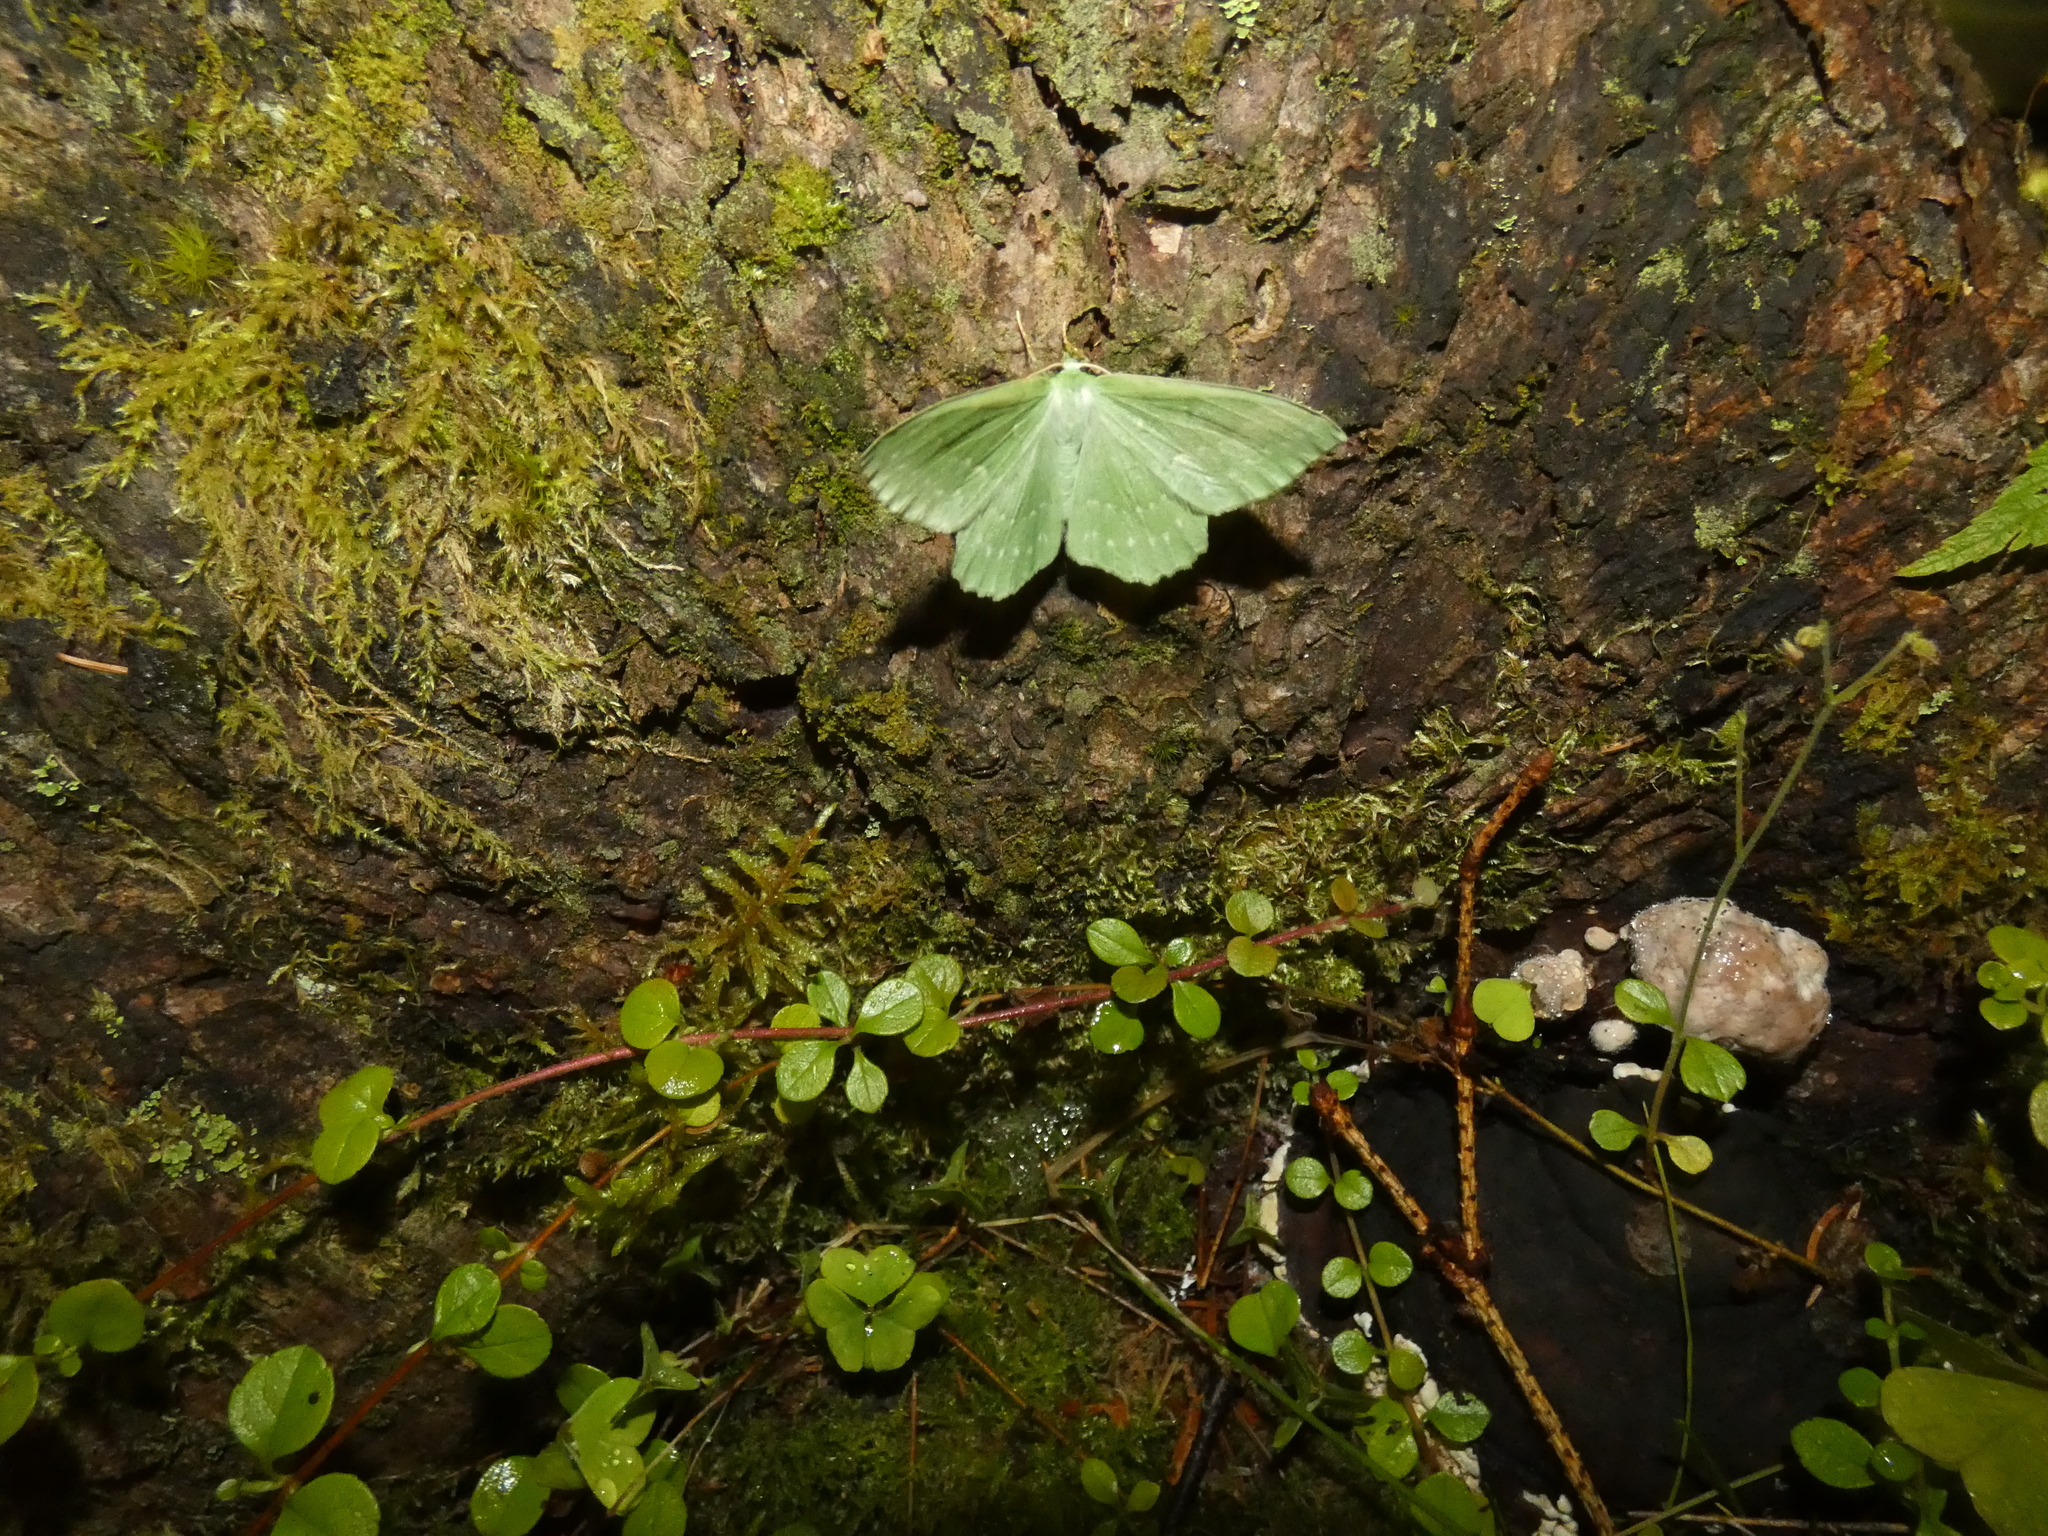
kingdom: Animalia
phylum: Arthropoda
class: Insecta
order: Lepidoptera
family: Geometridae
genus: Geometra
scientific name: Geometra papilionaria
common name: Large emerald
